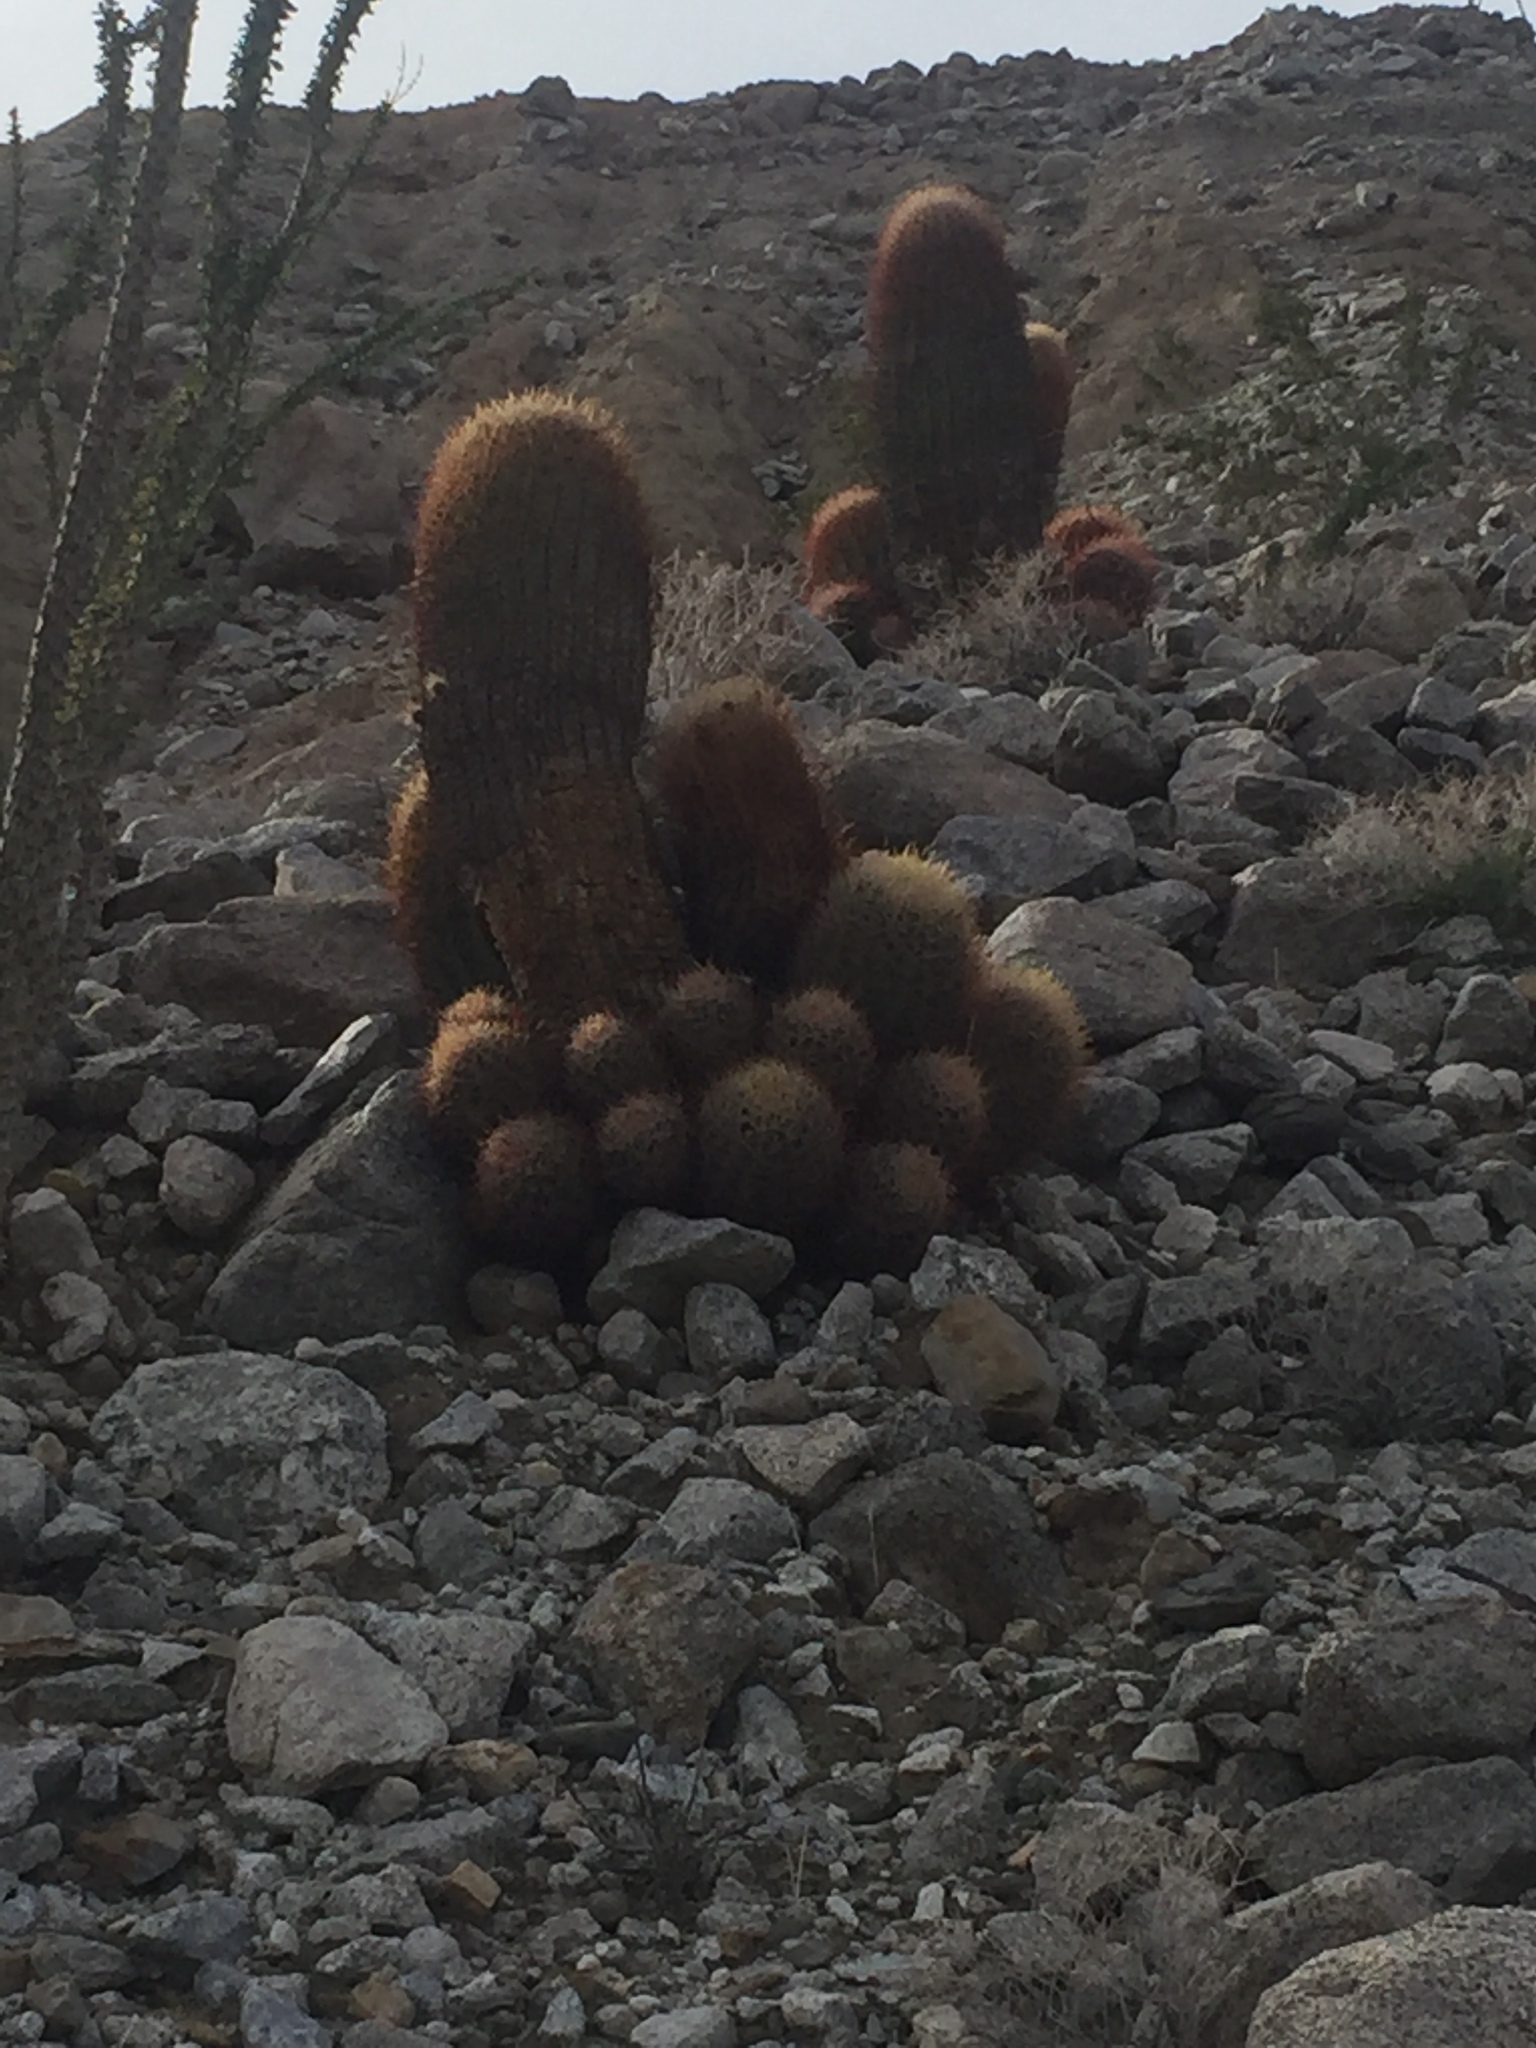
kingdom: Plantae
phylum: Tracheophyta
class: Magnoliopsida
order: Caryophyllales
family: Cactaceae
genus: Ferocactus
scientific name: Ferocactus cylindraceus
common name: California barrel cactus
